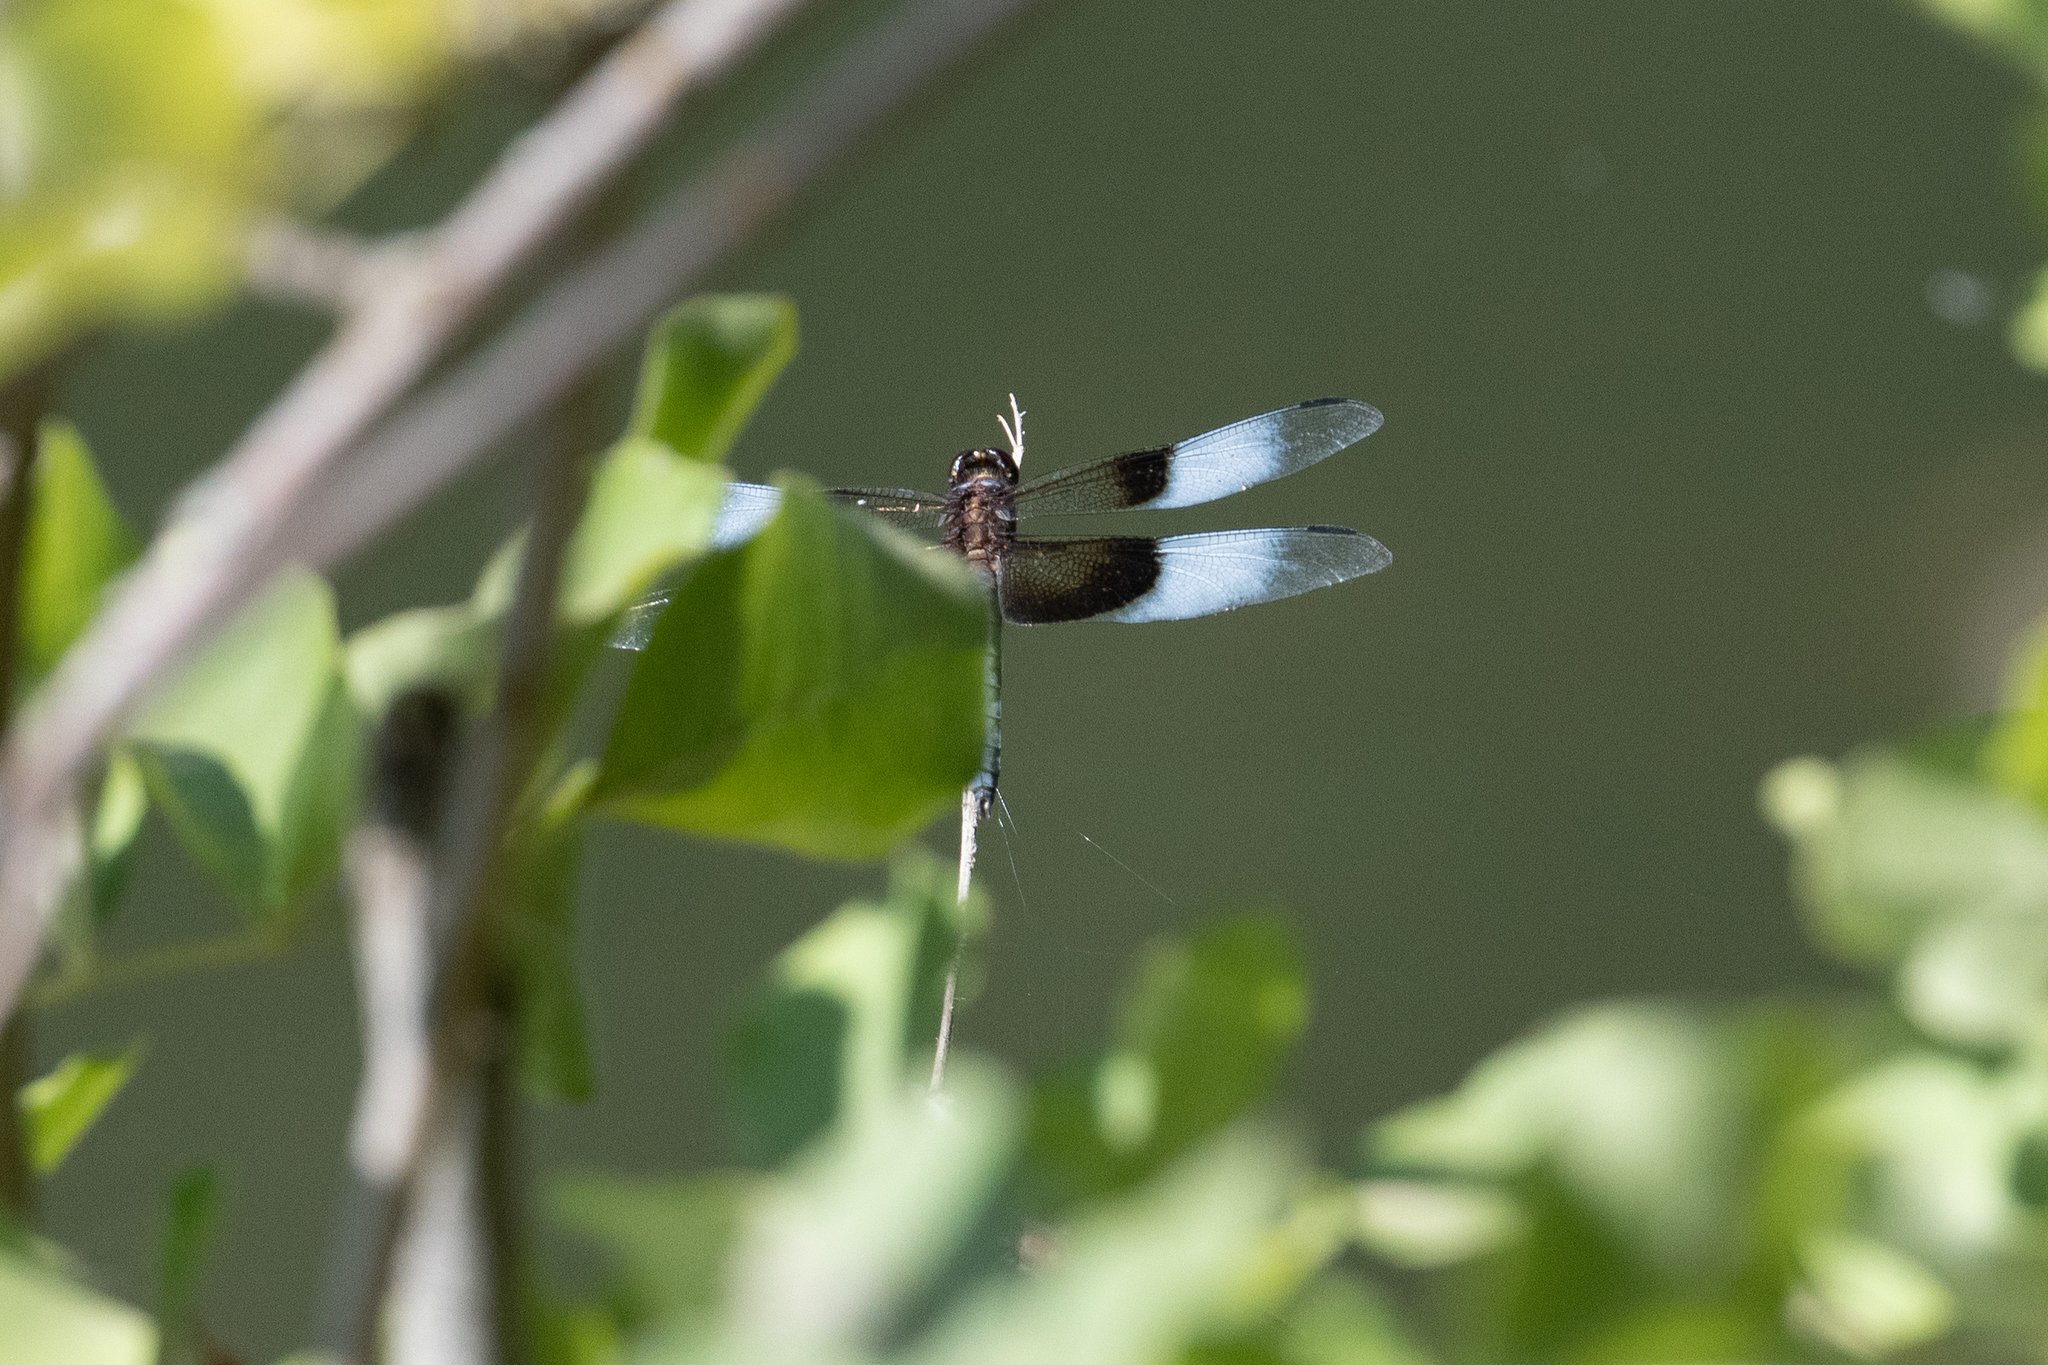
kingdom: Animalia
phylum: Arthropoda
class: Insecta
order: Odonata
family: Libellulidae
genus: Libellula
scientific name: Libellula luctuosa
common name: Widow skimmer
